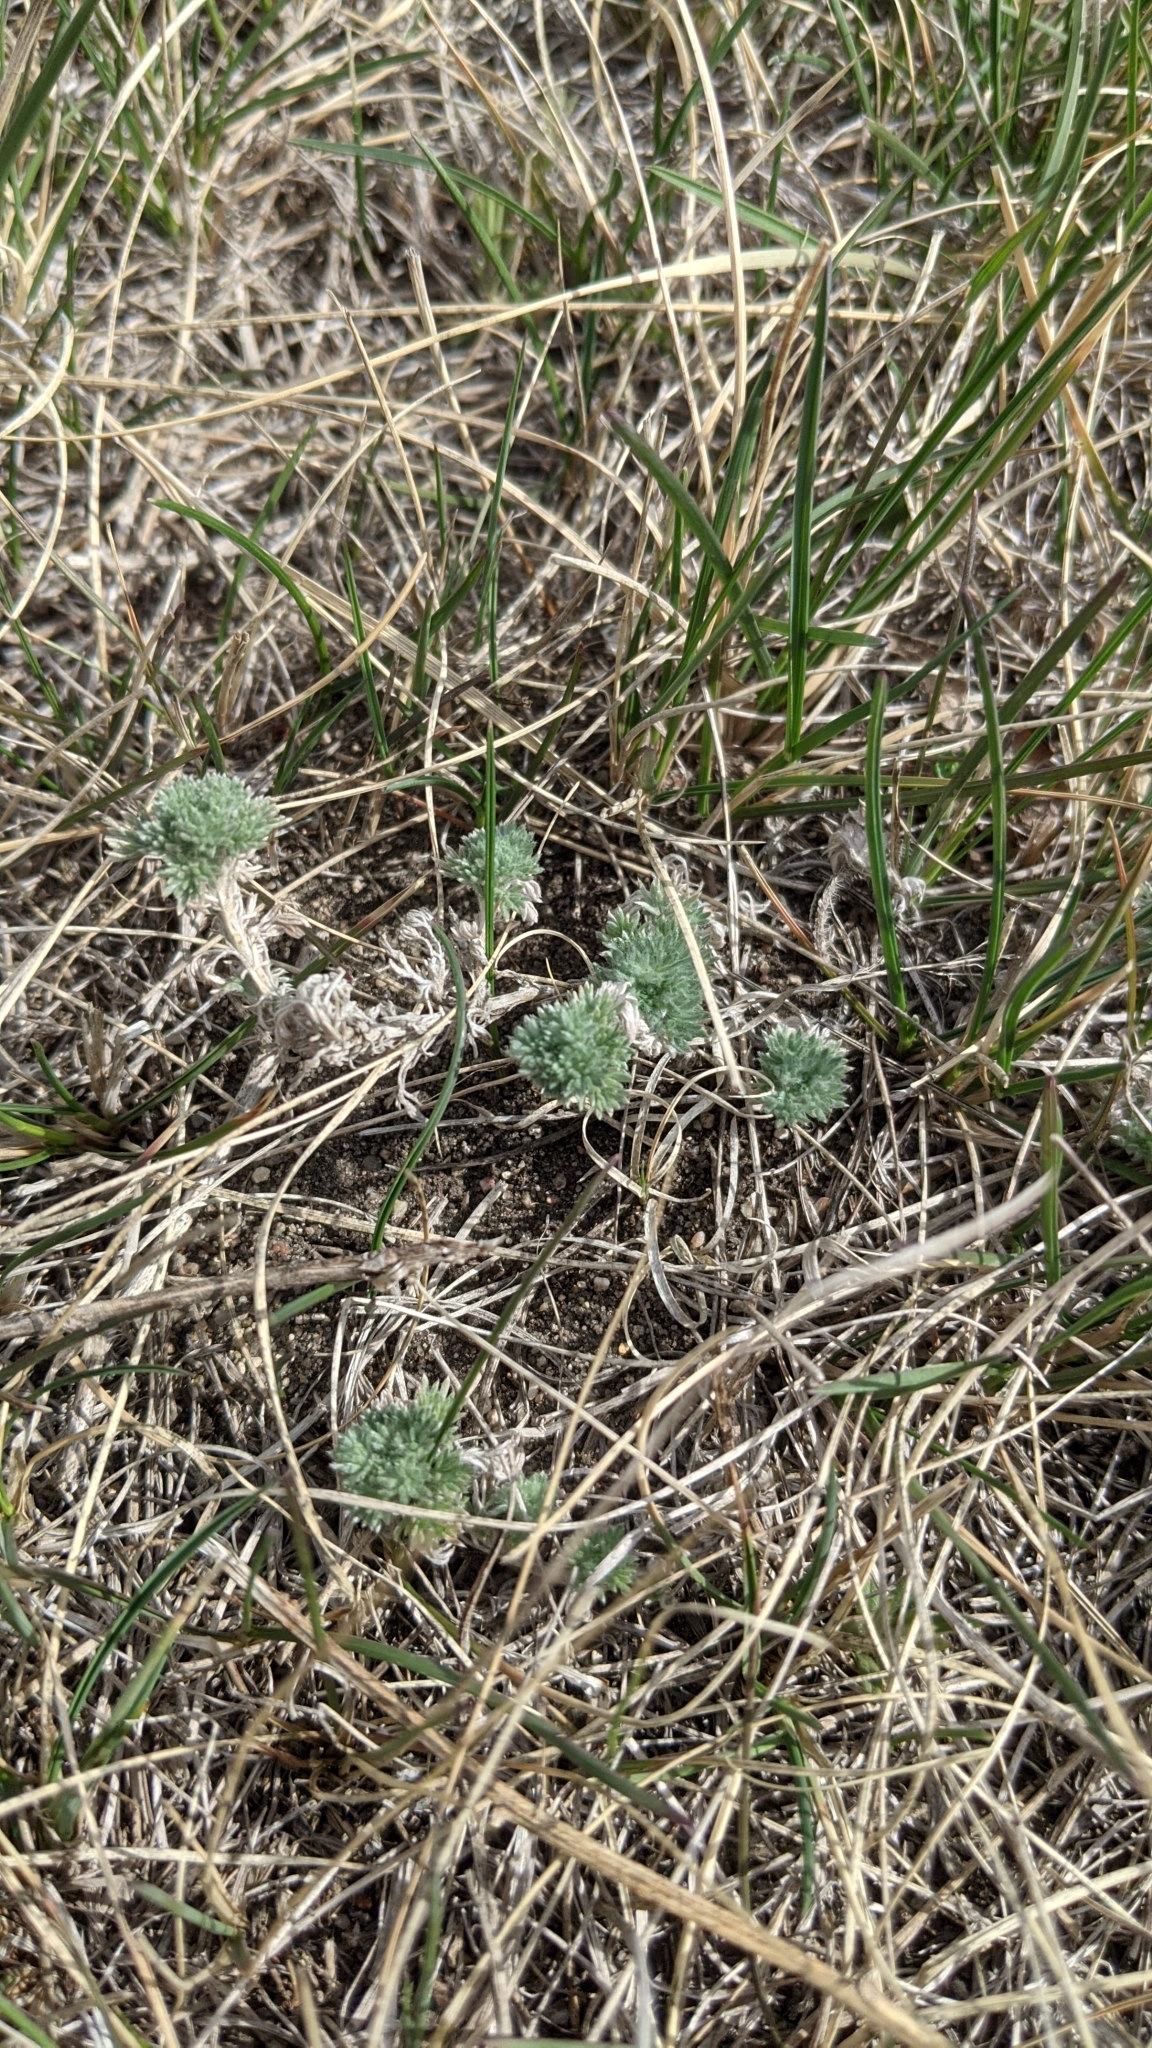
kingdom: Plantae
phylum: Tracheophyta
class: Magnoliopsida
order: Asterales
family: Asteraceae
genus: Artemisia
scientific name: Artemisia frigida
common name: Prairie sagewort
